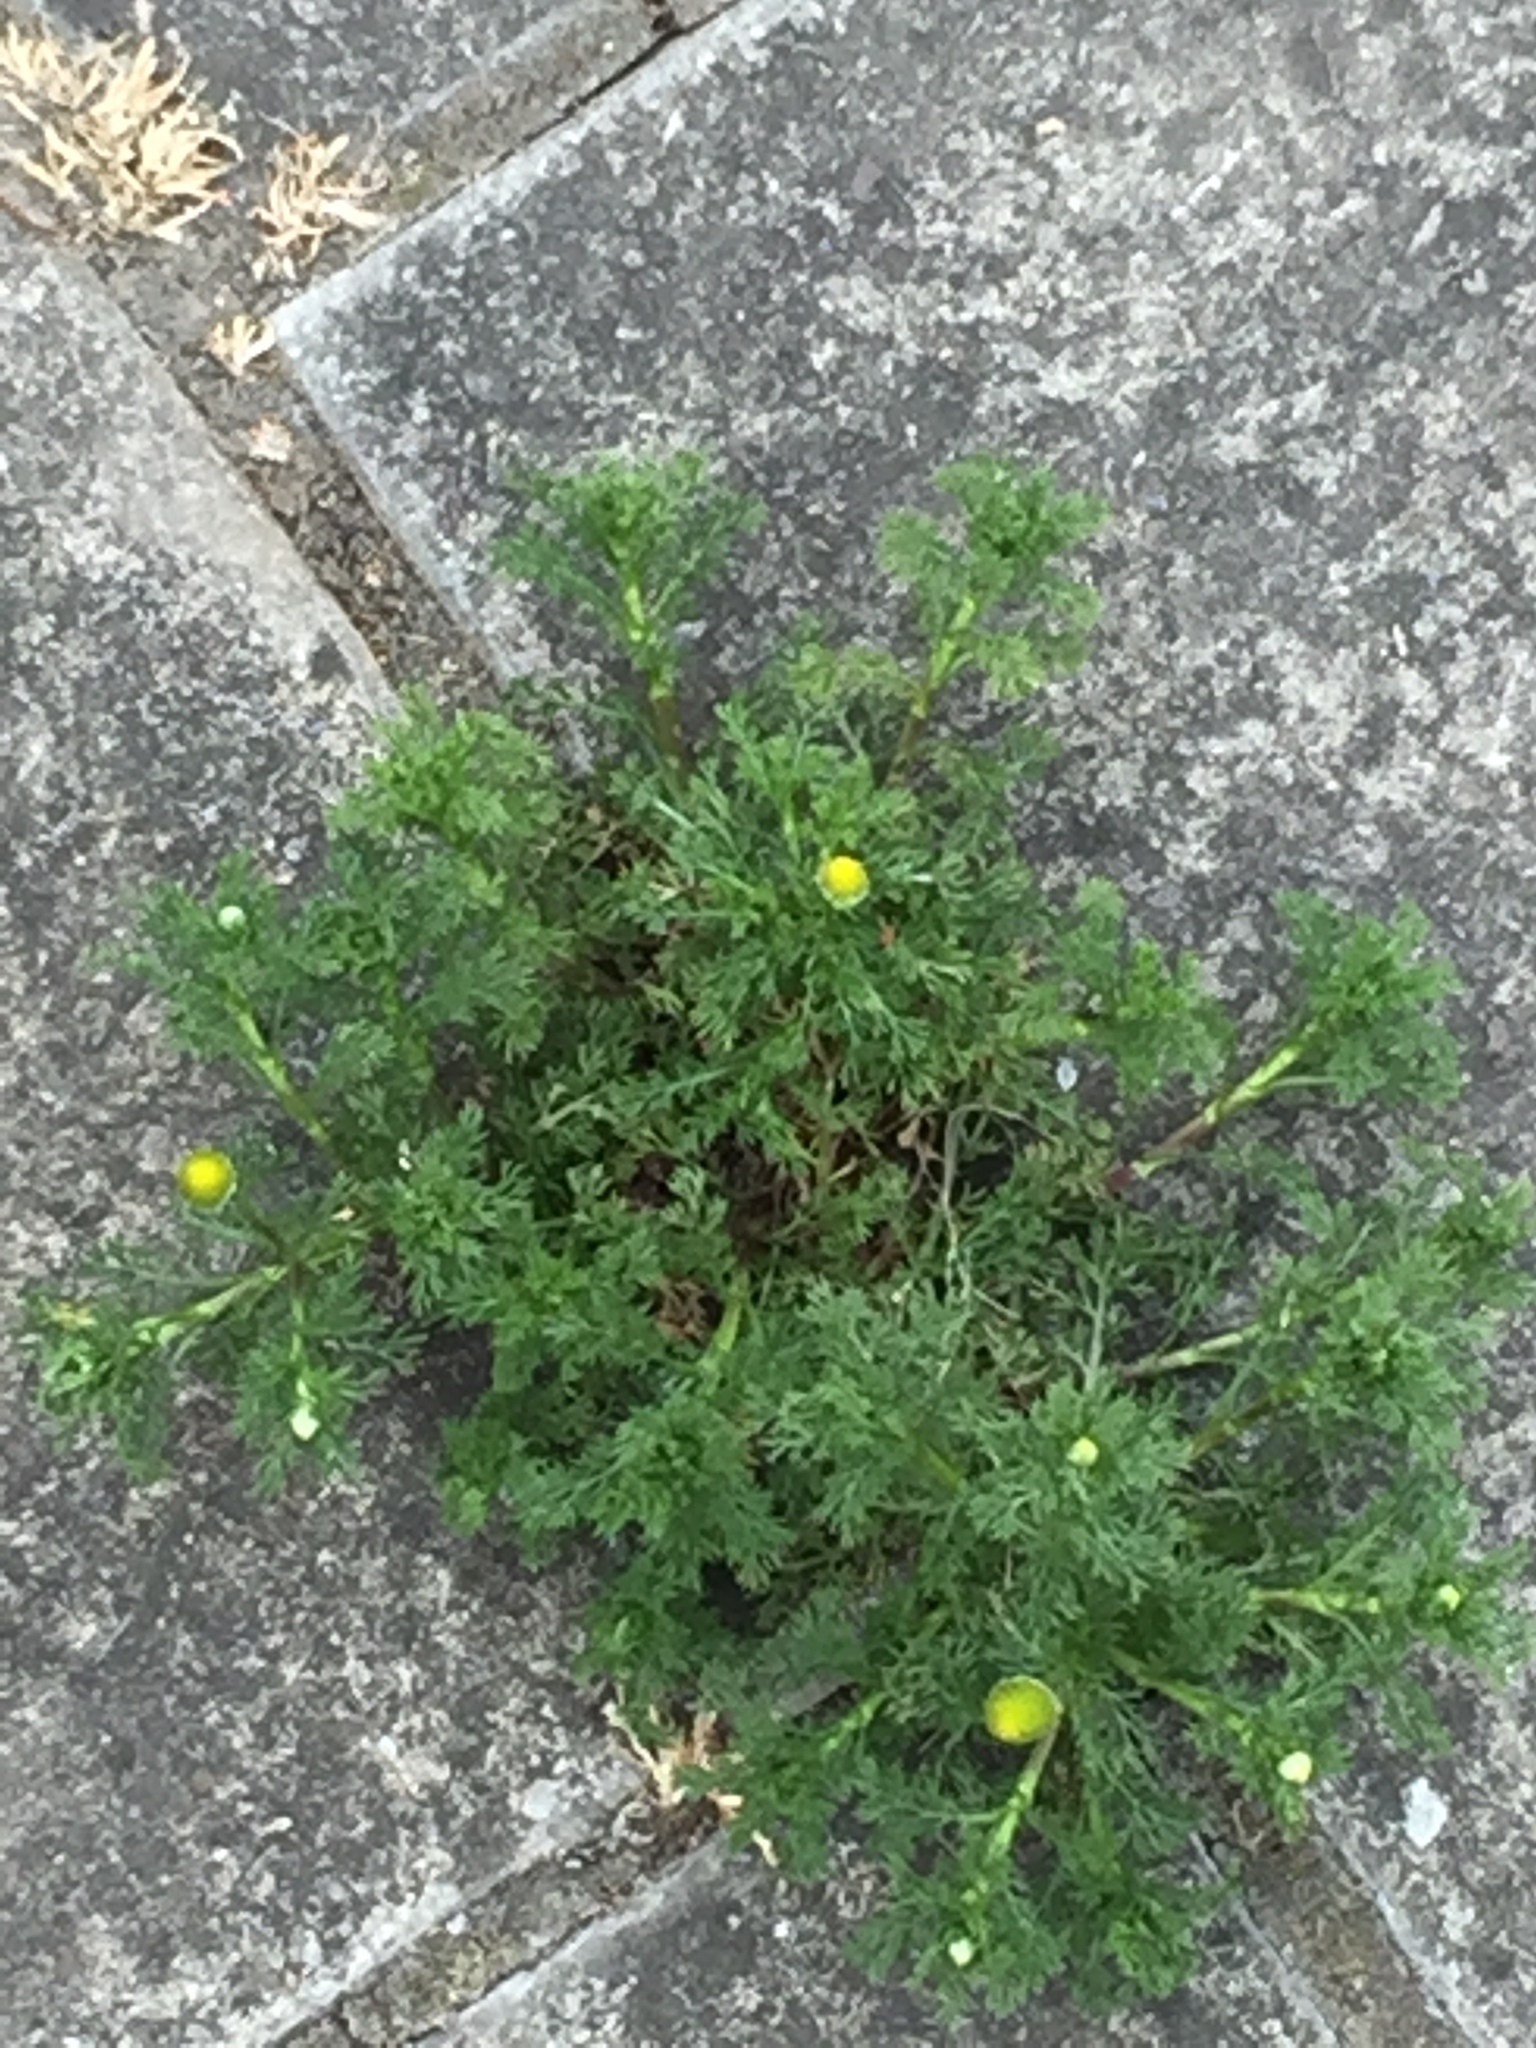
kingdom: Plantae
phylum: Tracheophyta
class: Magnoliopsida
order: Asterales
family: Asteraceae
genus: Matricaria
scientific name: Matricaria discoidea
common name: Disc mayweed
